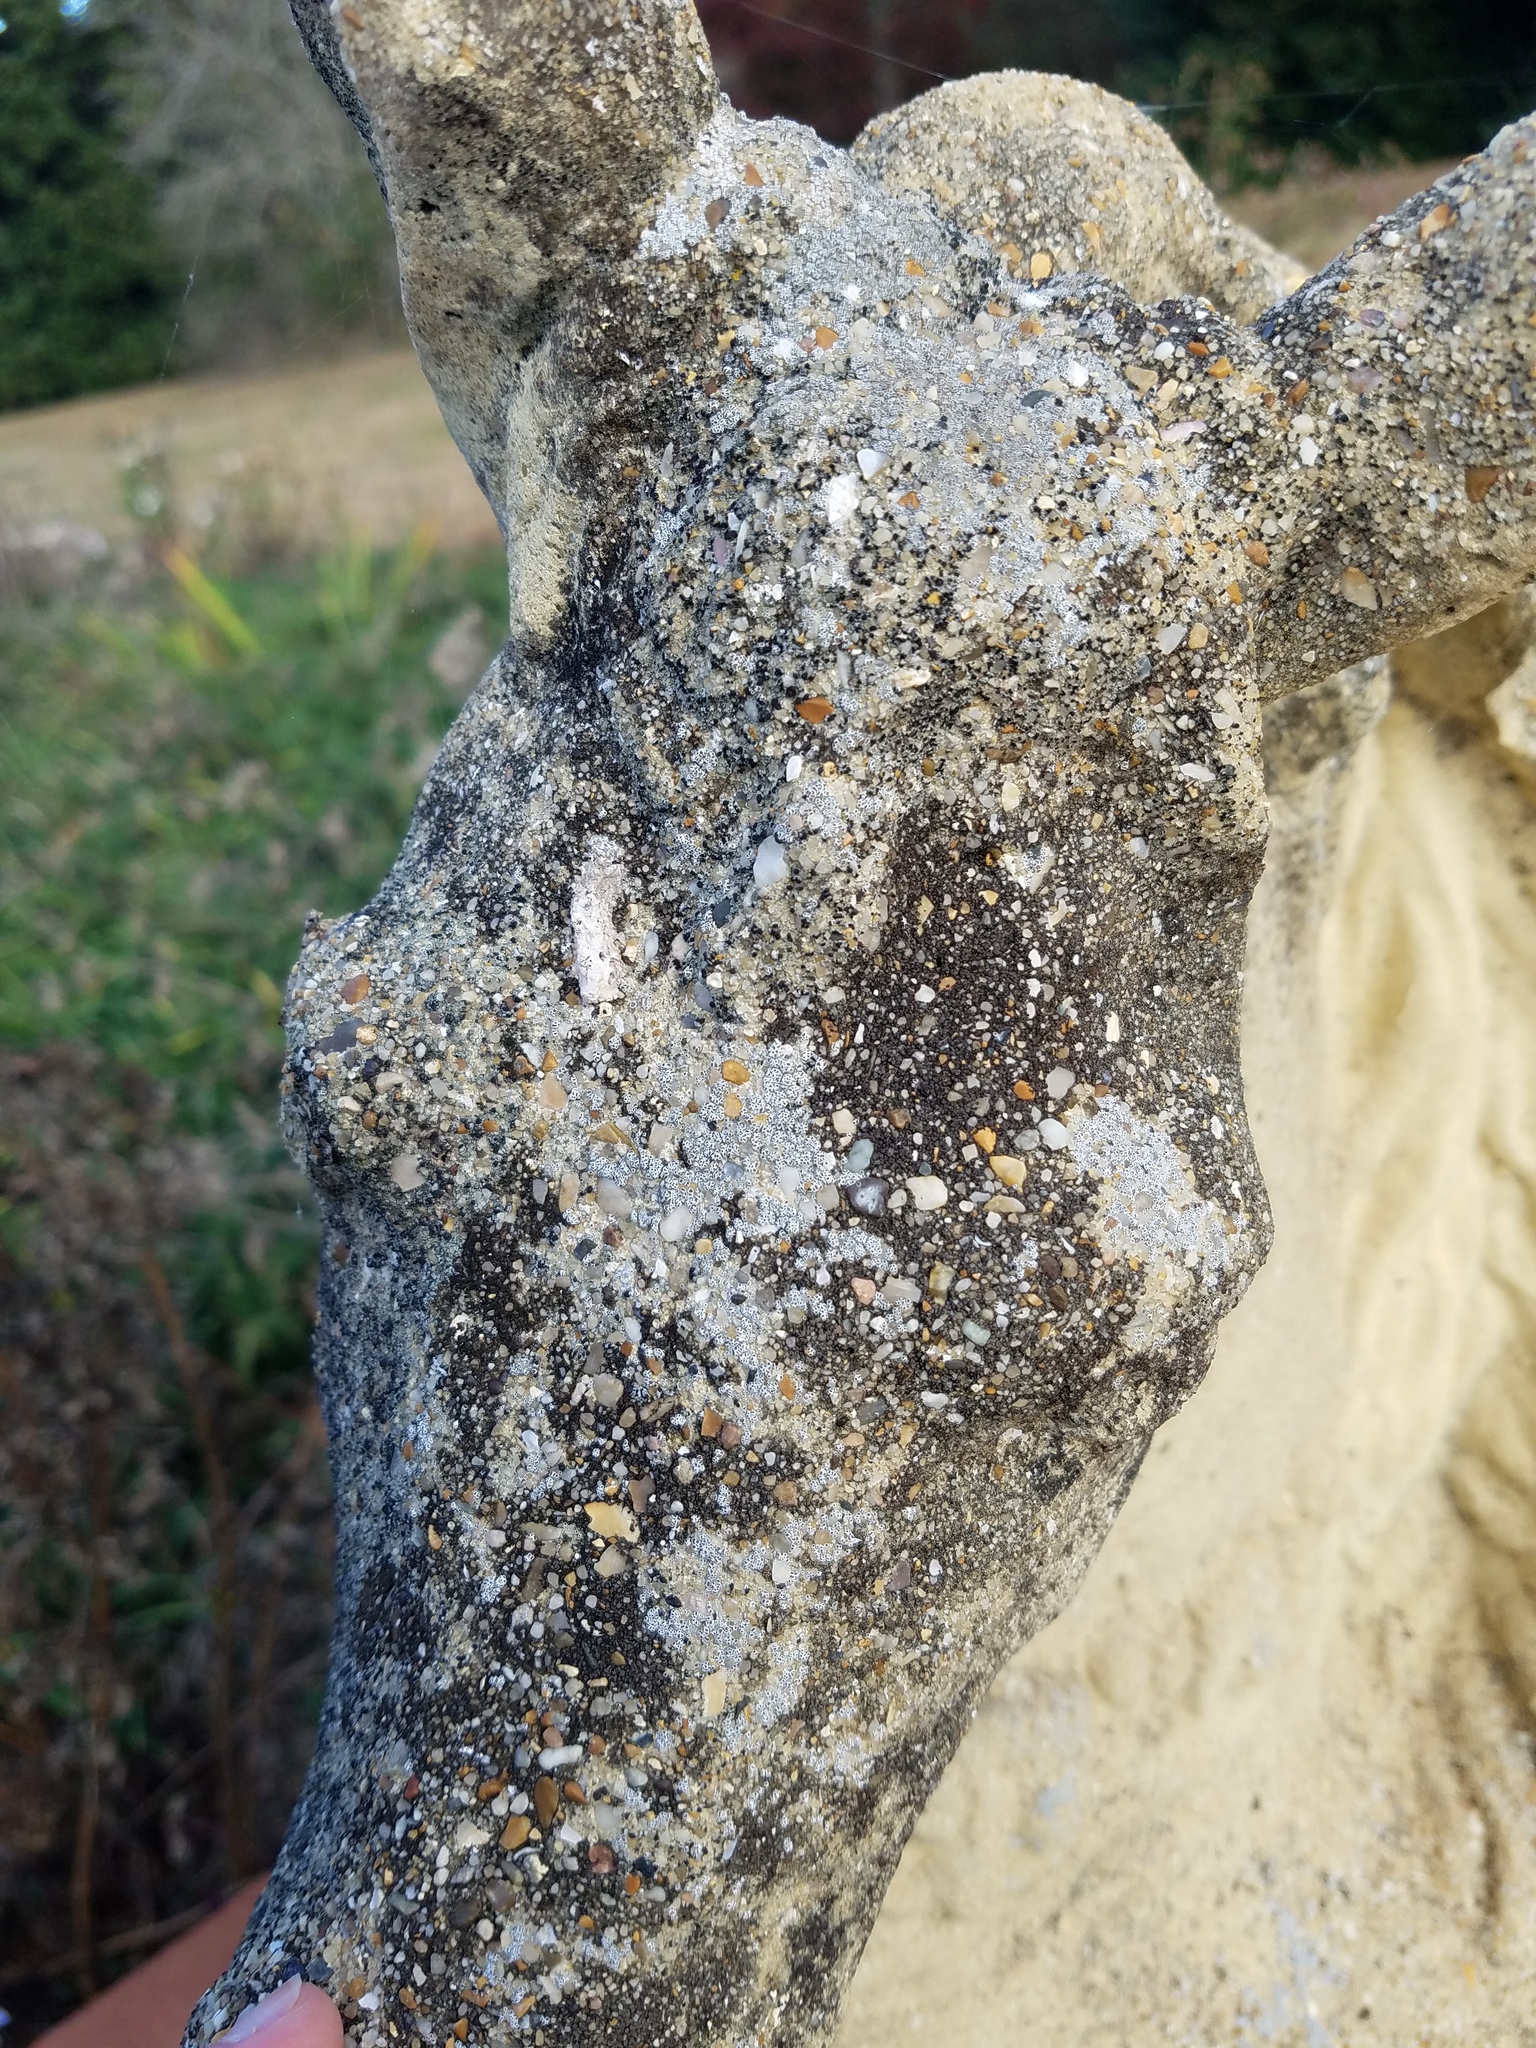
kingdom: Fungi
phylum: Ascomycota
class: Lecanoromycetes
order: Lecanorales
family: Lecanoraceae
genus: Polyozosia
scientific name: Polyozosia dispersa
